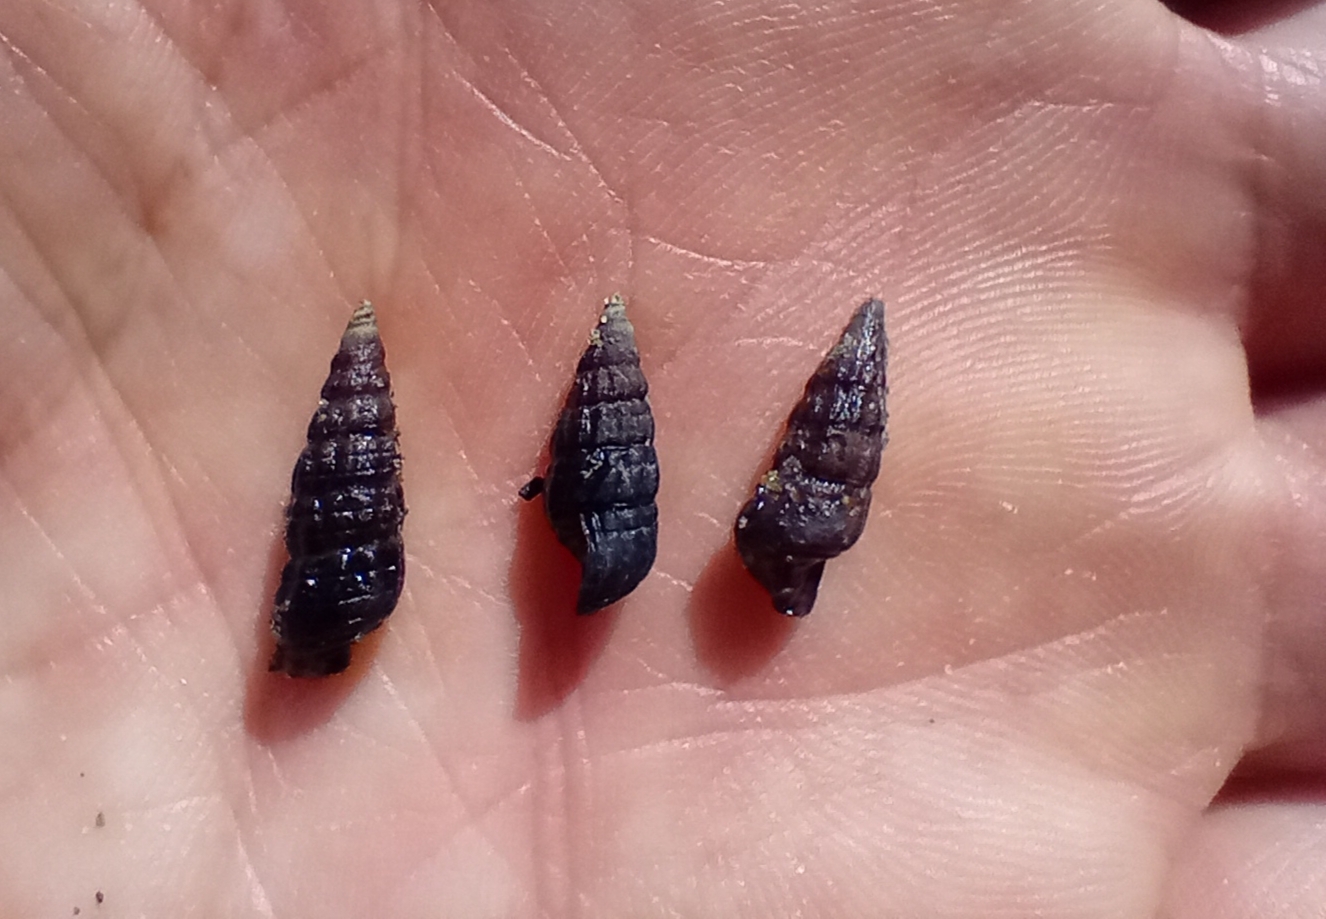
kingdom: Animalia
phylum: Mollusca
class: Gastropoda
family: Batillariidae
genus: Zeacumantus
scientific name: Zeacumantus subcarinatus
